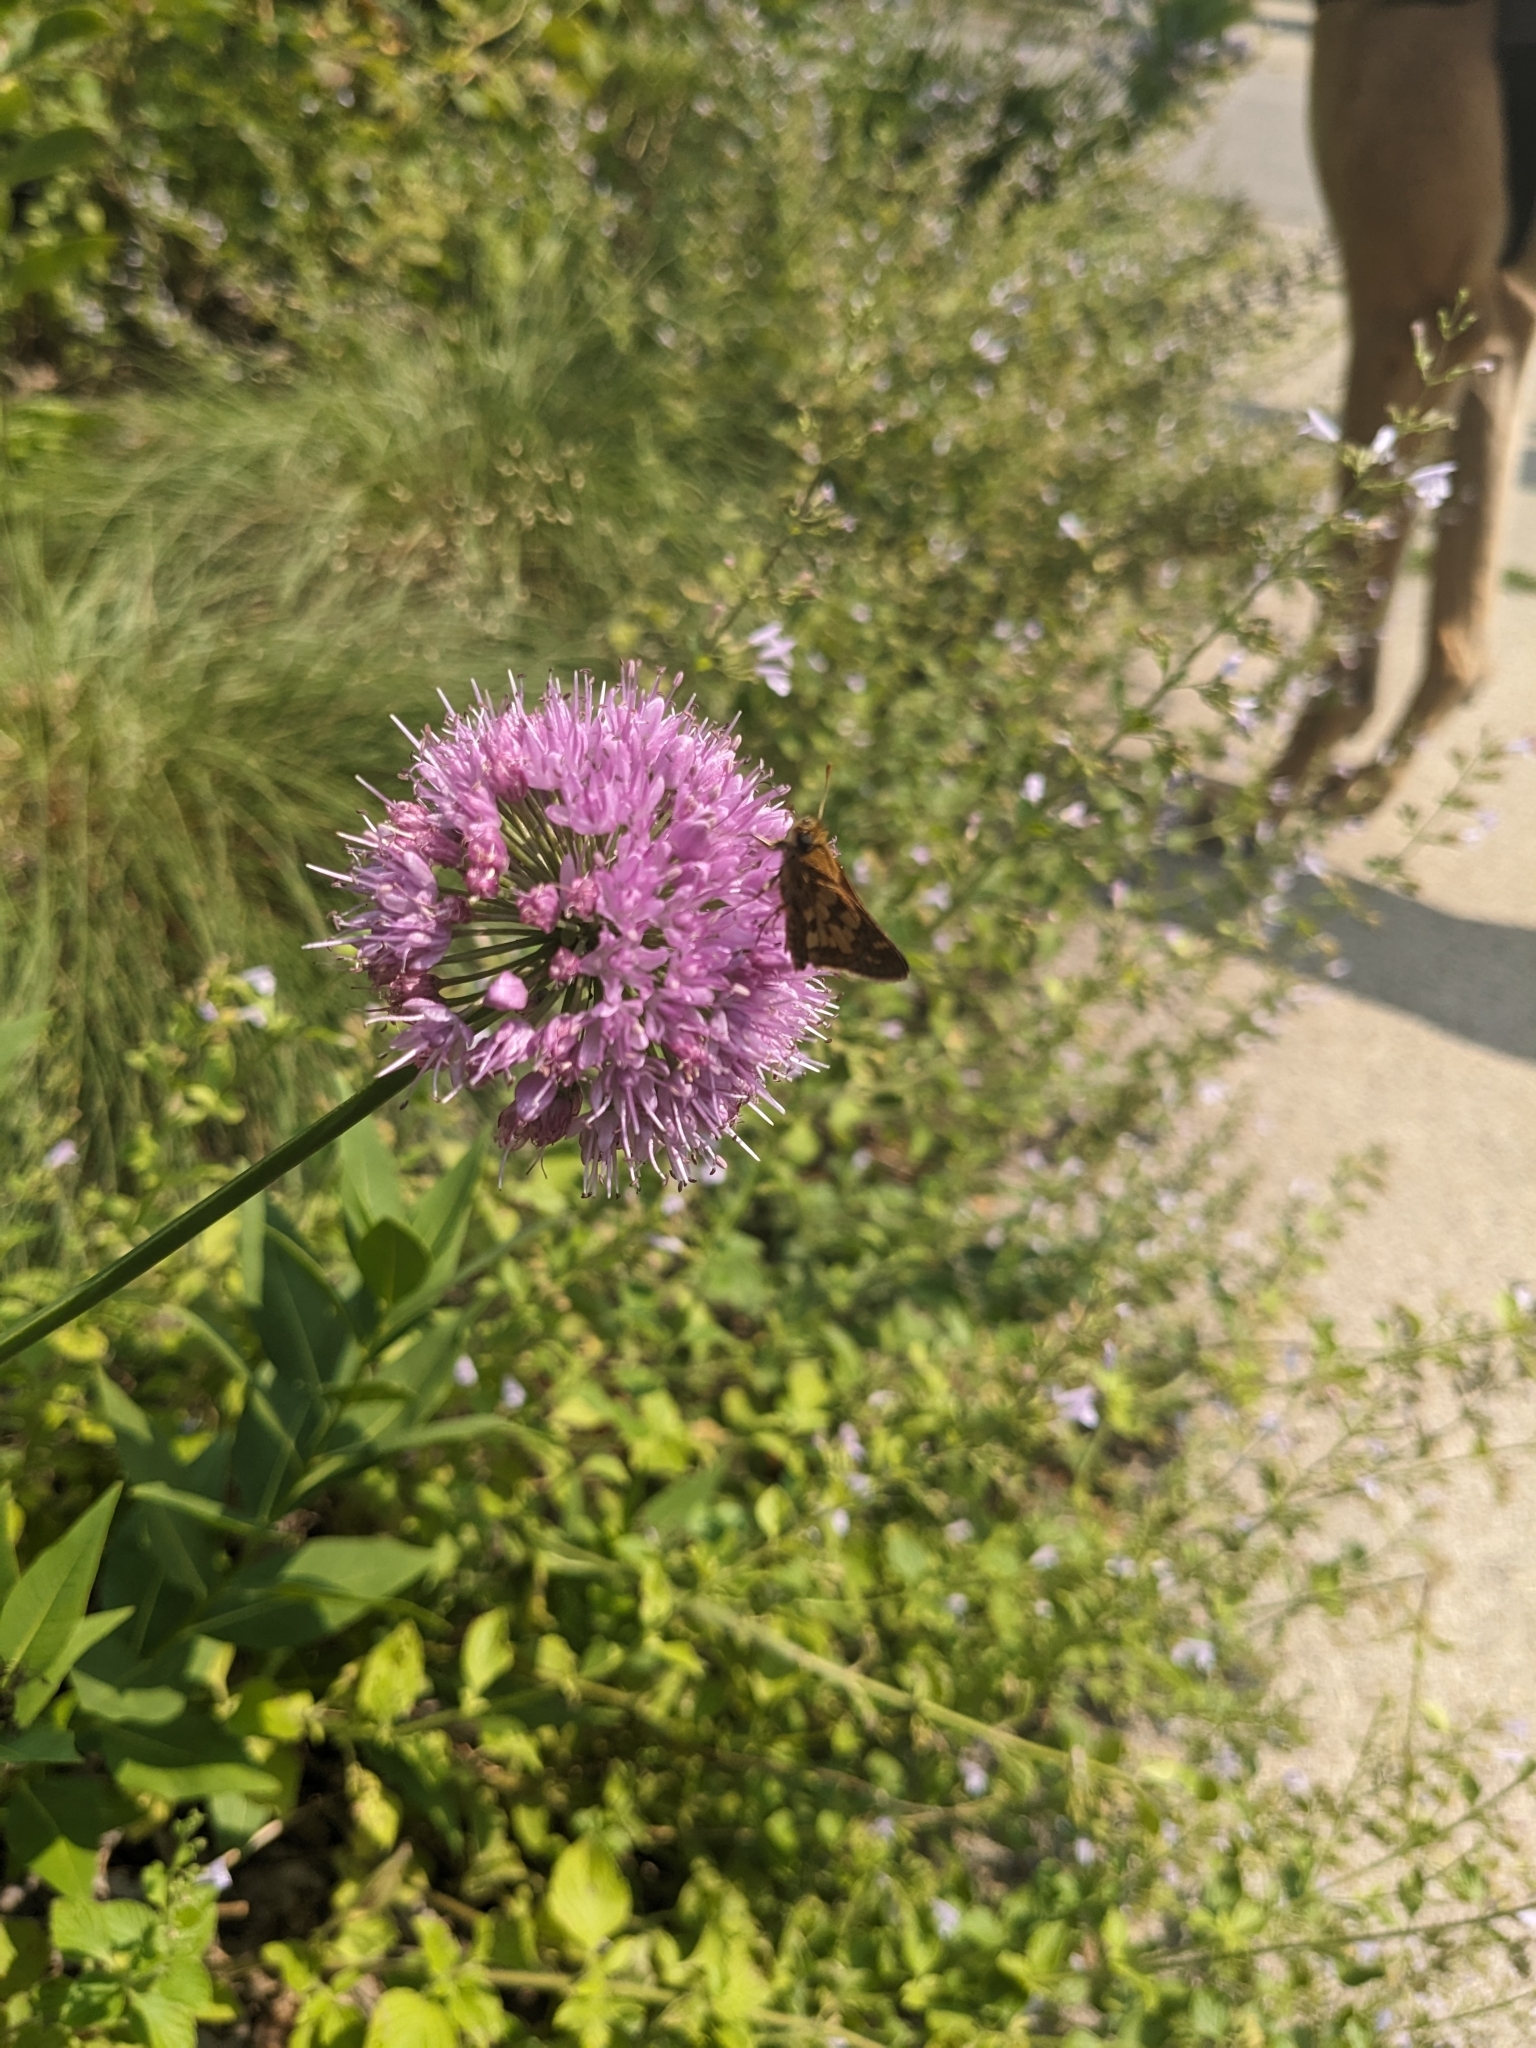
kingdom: Animalia
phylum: Arthropoda
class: Insecta
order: Lepidoptera
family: Hesperiidae
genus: Polites
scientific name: Polites coras
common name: Peck's skipper
